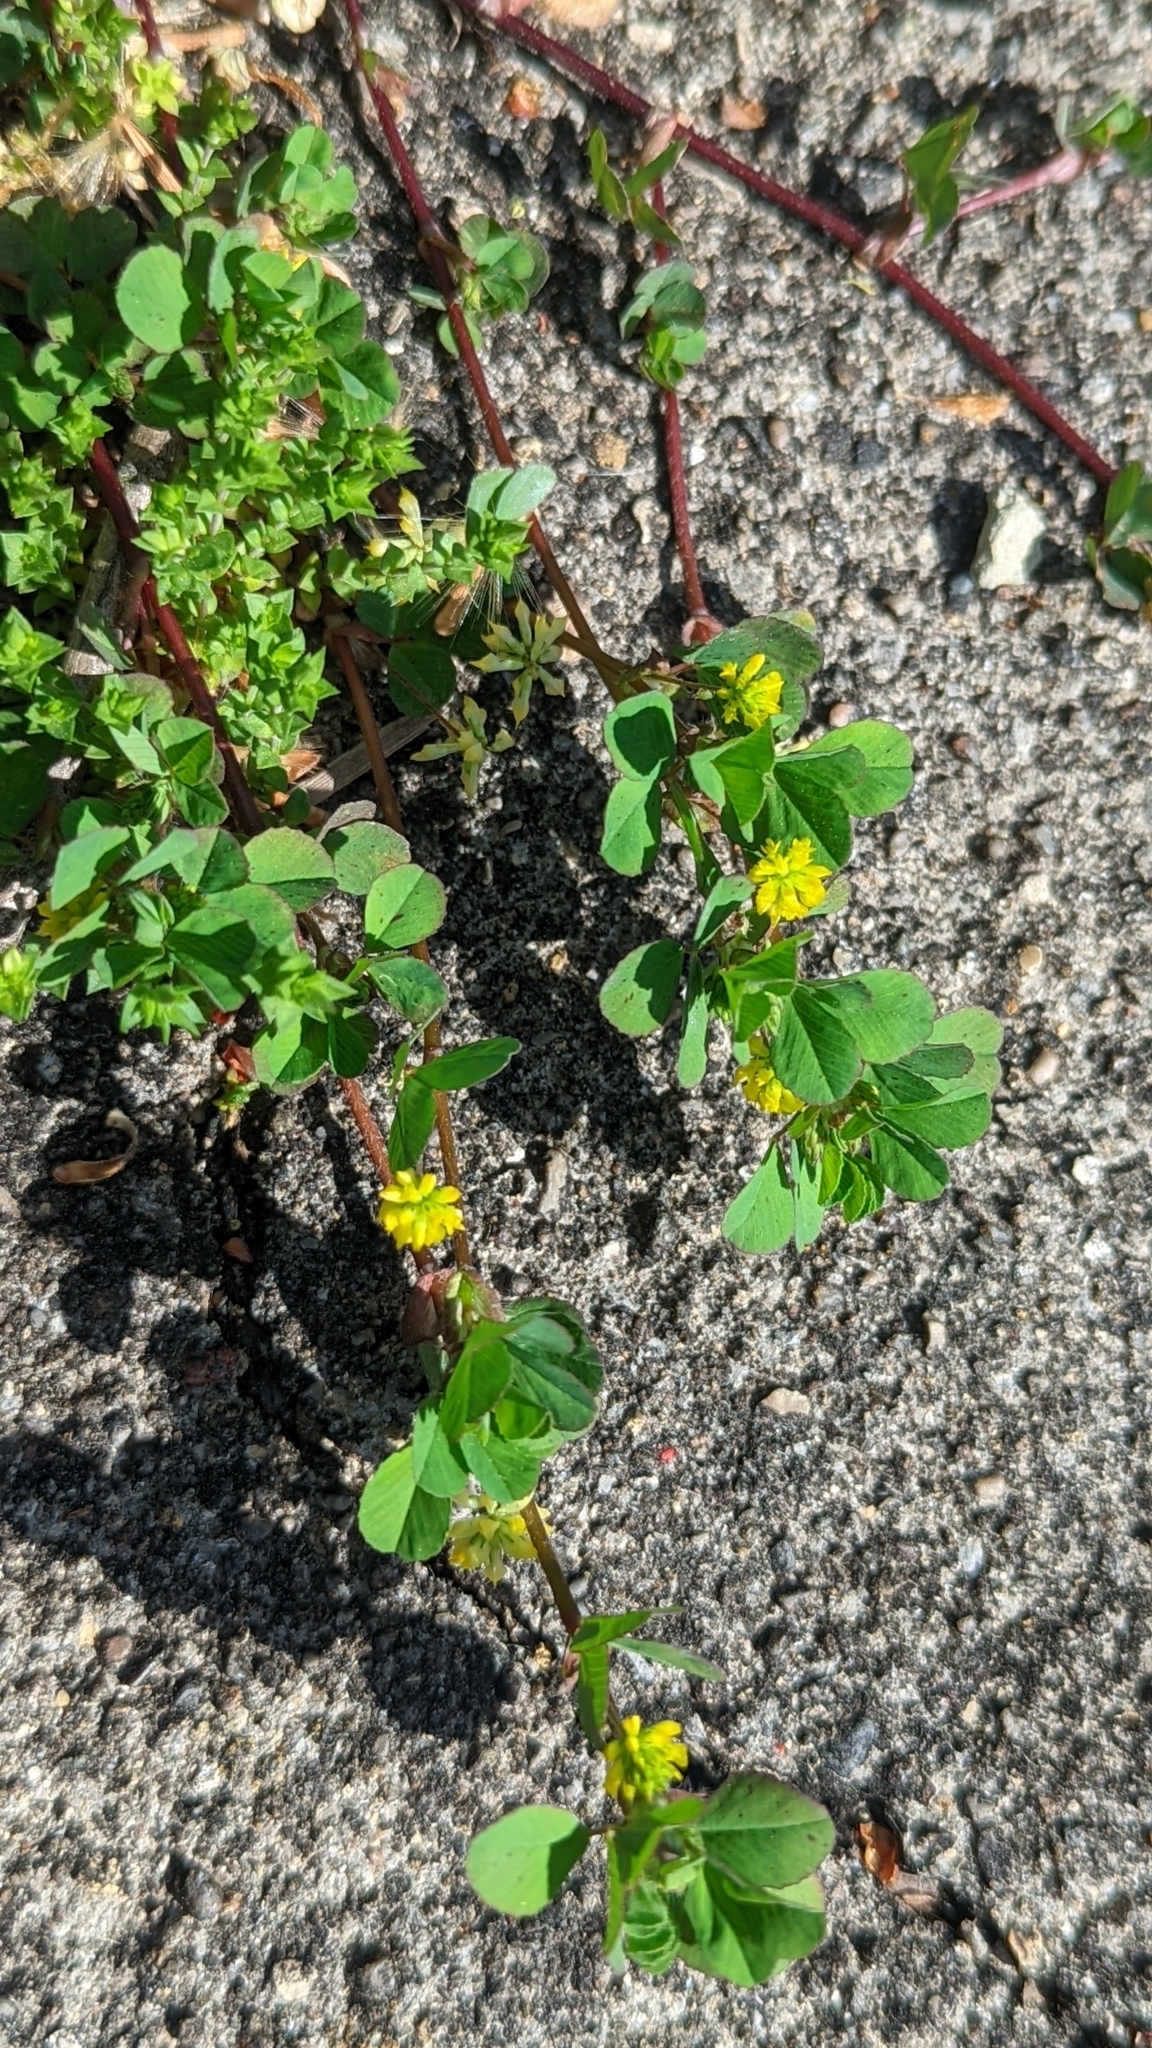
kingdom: Plantae
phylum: Tracheophyta
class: Magnoliopsida
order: Fabales
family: Fabaceae
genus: Trifolium
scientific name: Trifolium dubium
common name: Suckling clover
